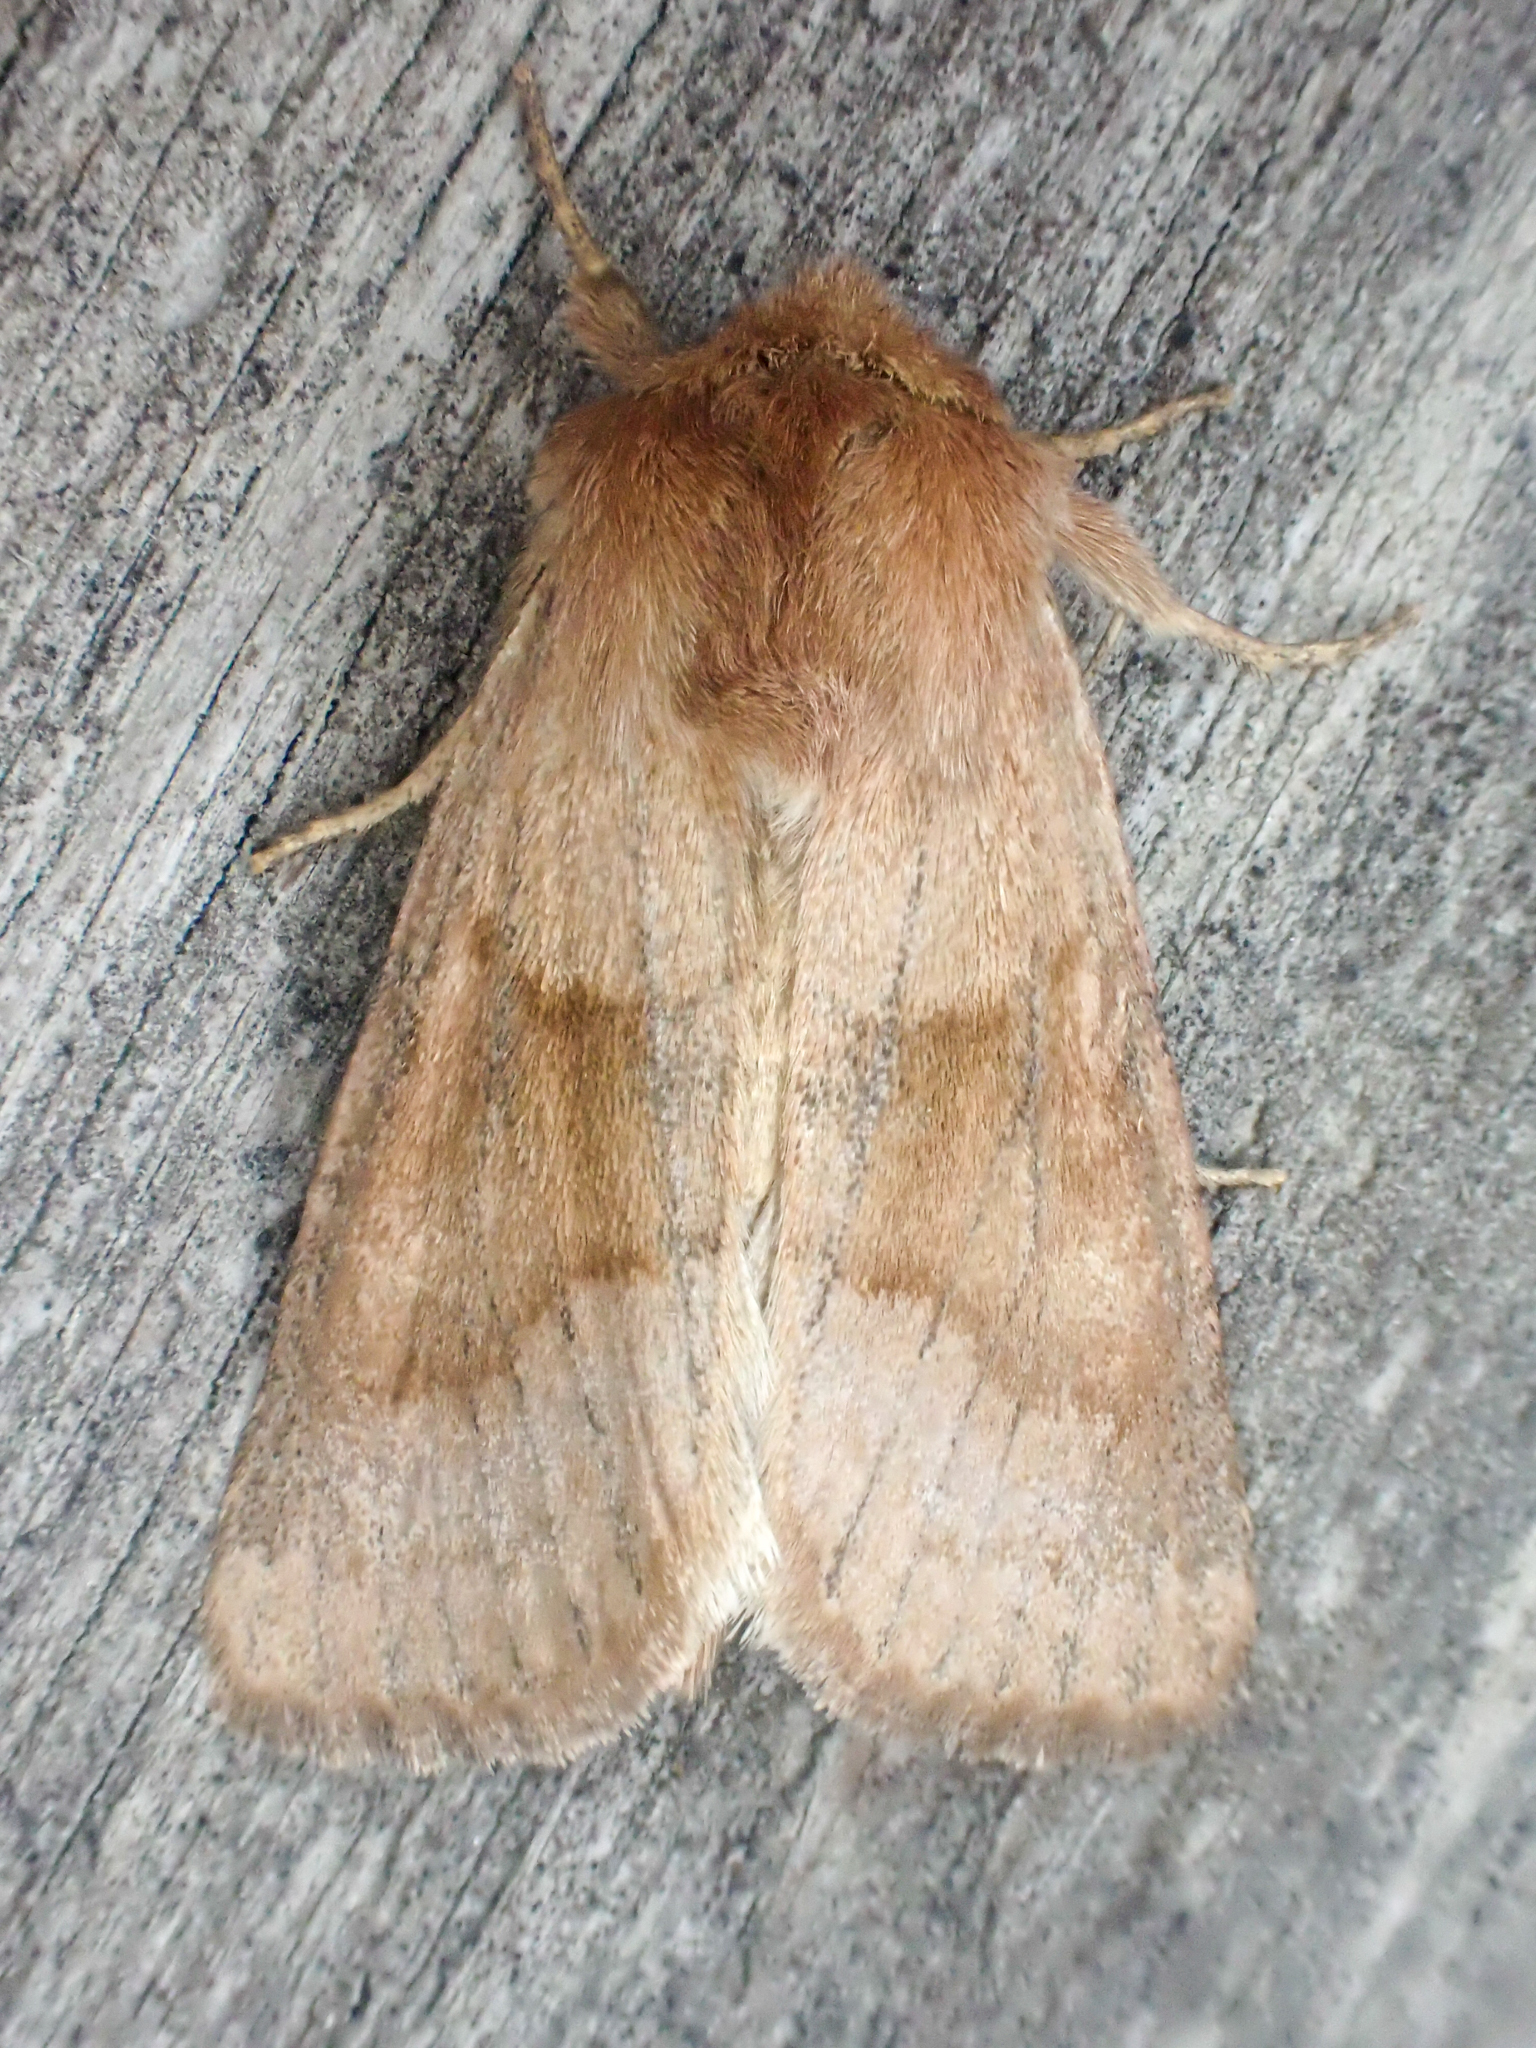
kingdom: Animalia
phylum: Arthropoda
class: Insecta
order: Lepidoptera
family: Noctuidae
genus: Nephelodes
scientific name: Nephelodes minians
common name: Bronzed cutworm
